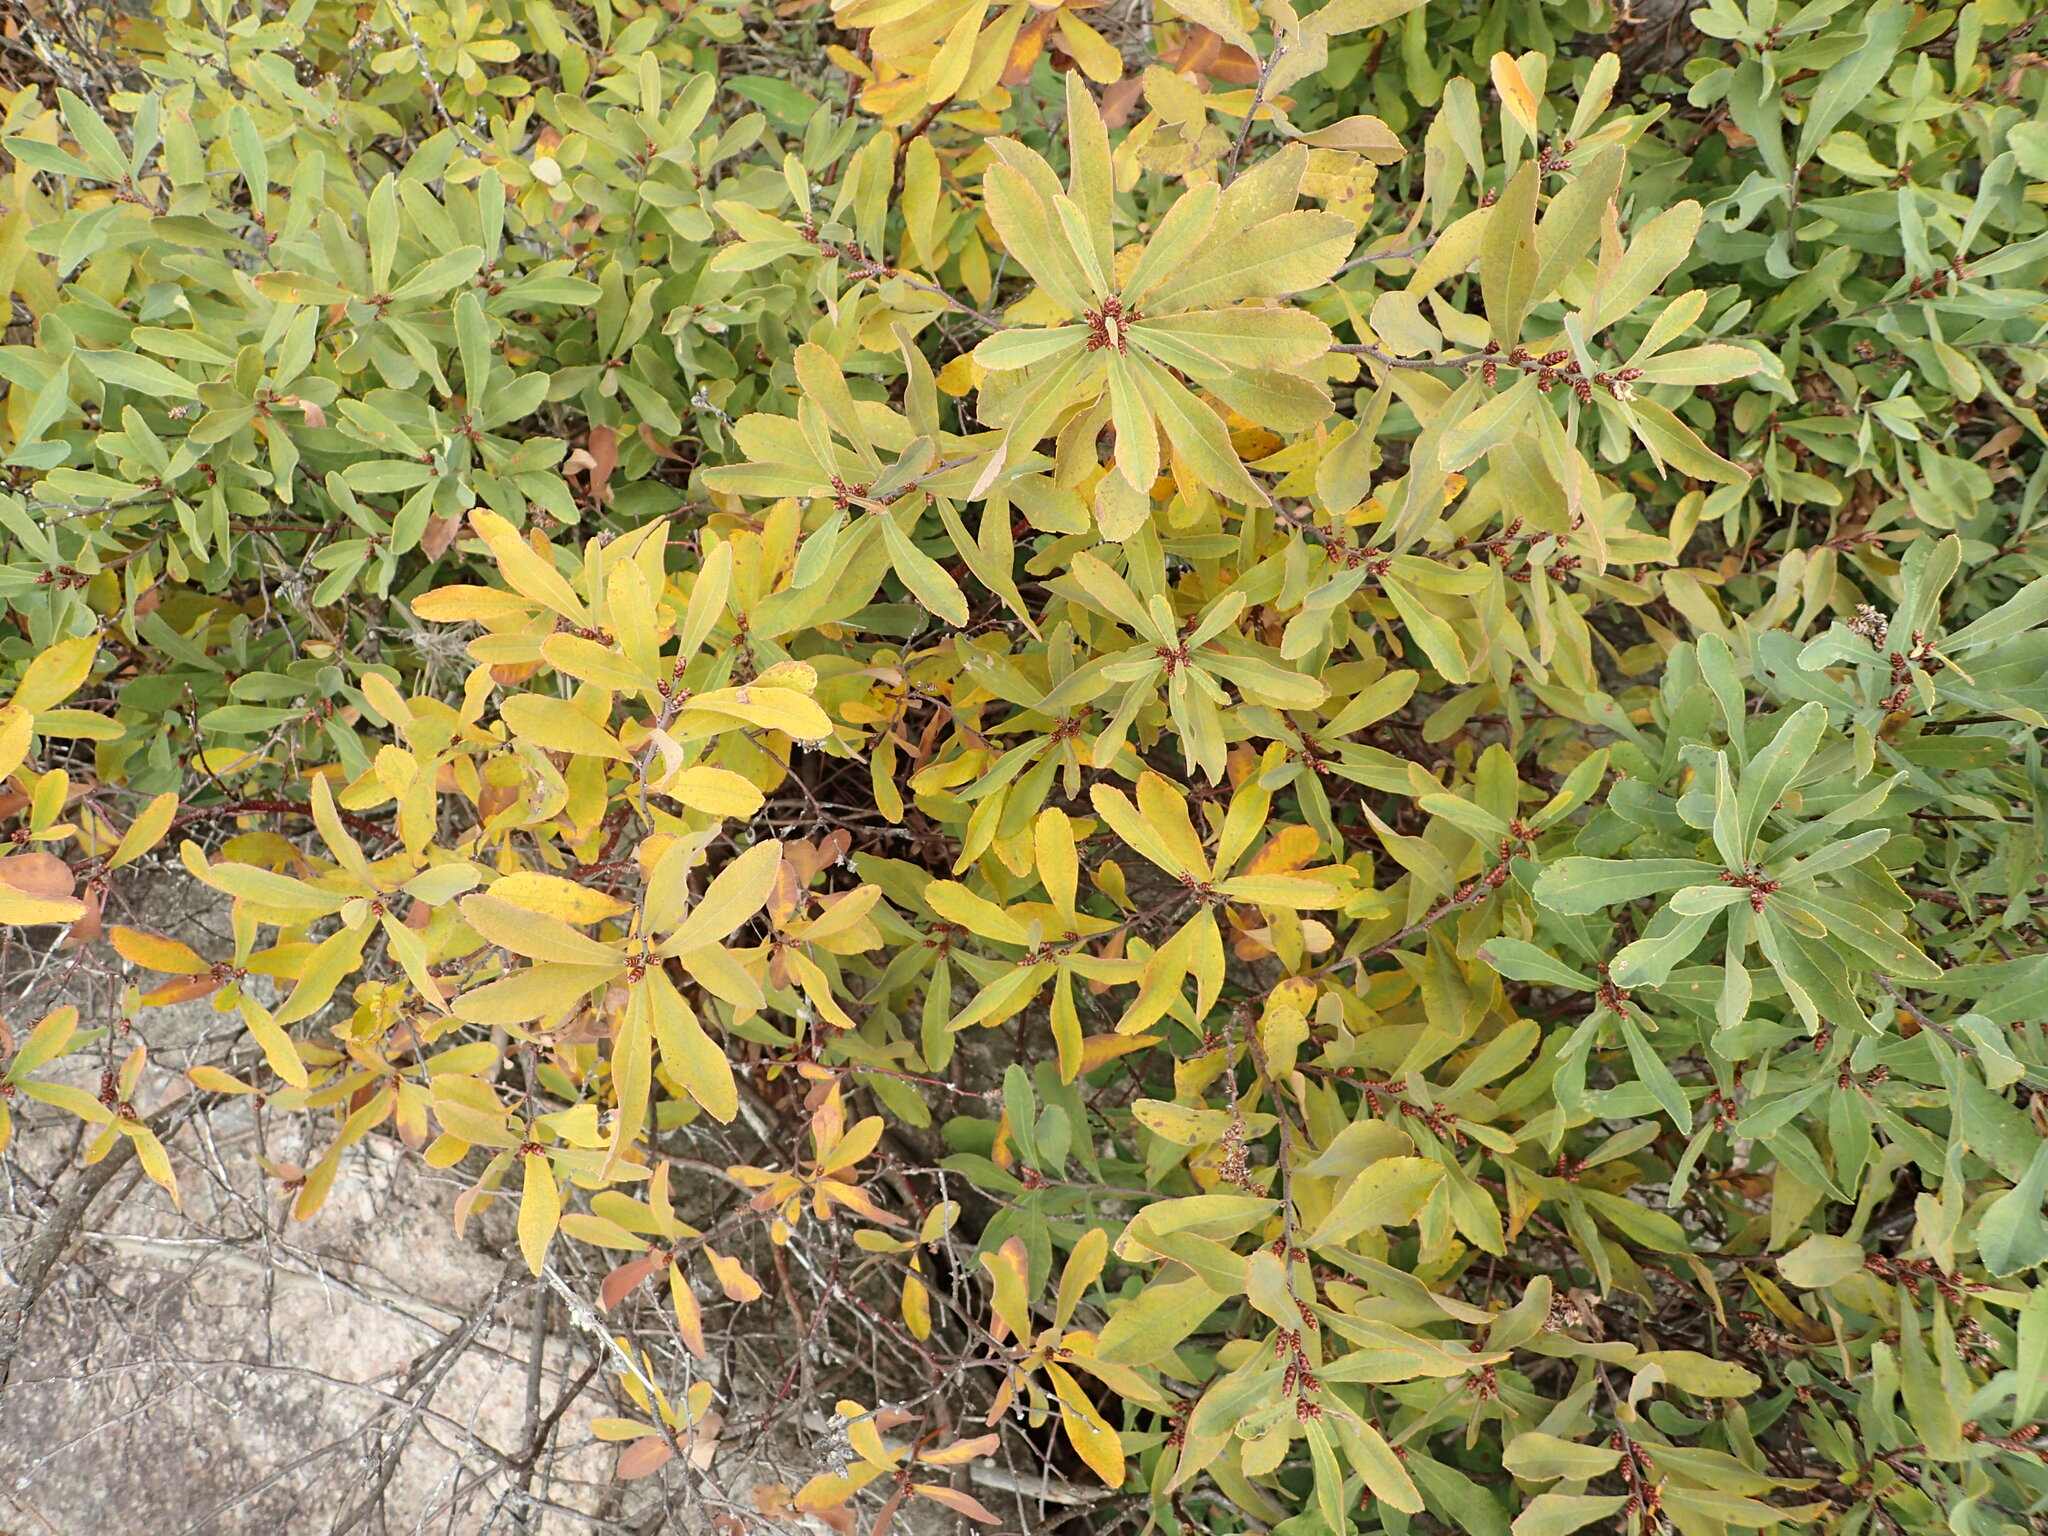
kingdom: Plantae
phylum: Tracheophyta
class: Magnoliopsida
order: Fagales
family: Myricaceae
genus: Myrica
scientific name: Myrica gale
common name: Sweet gale
